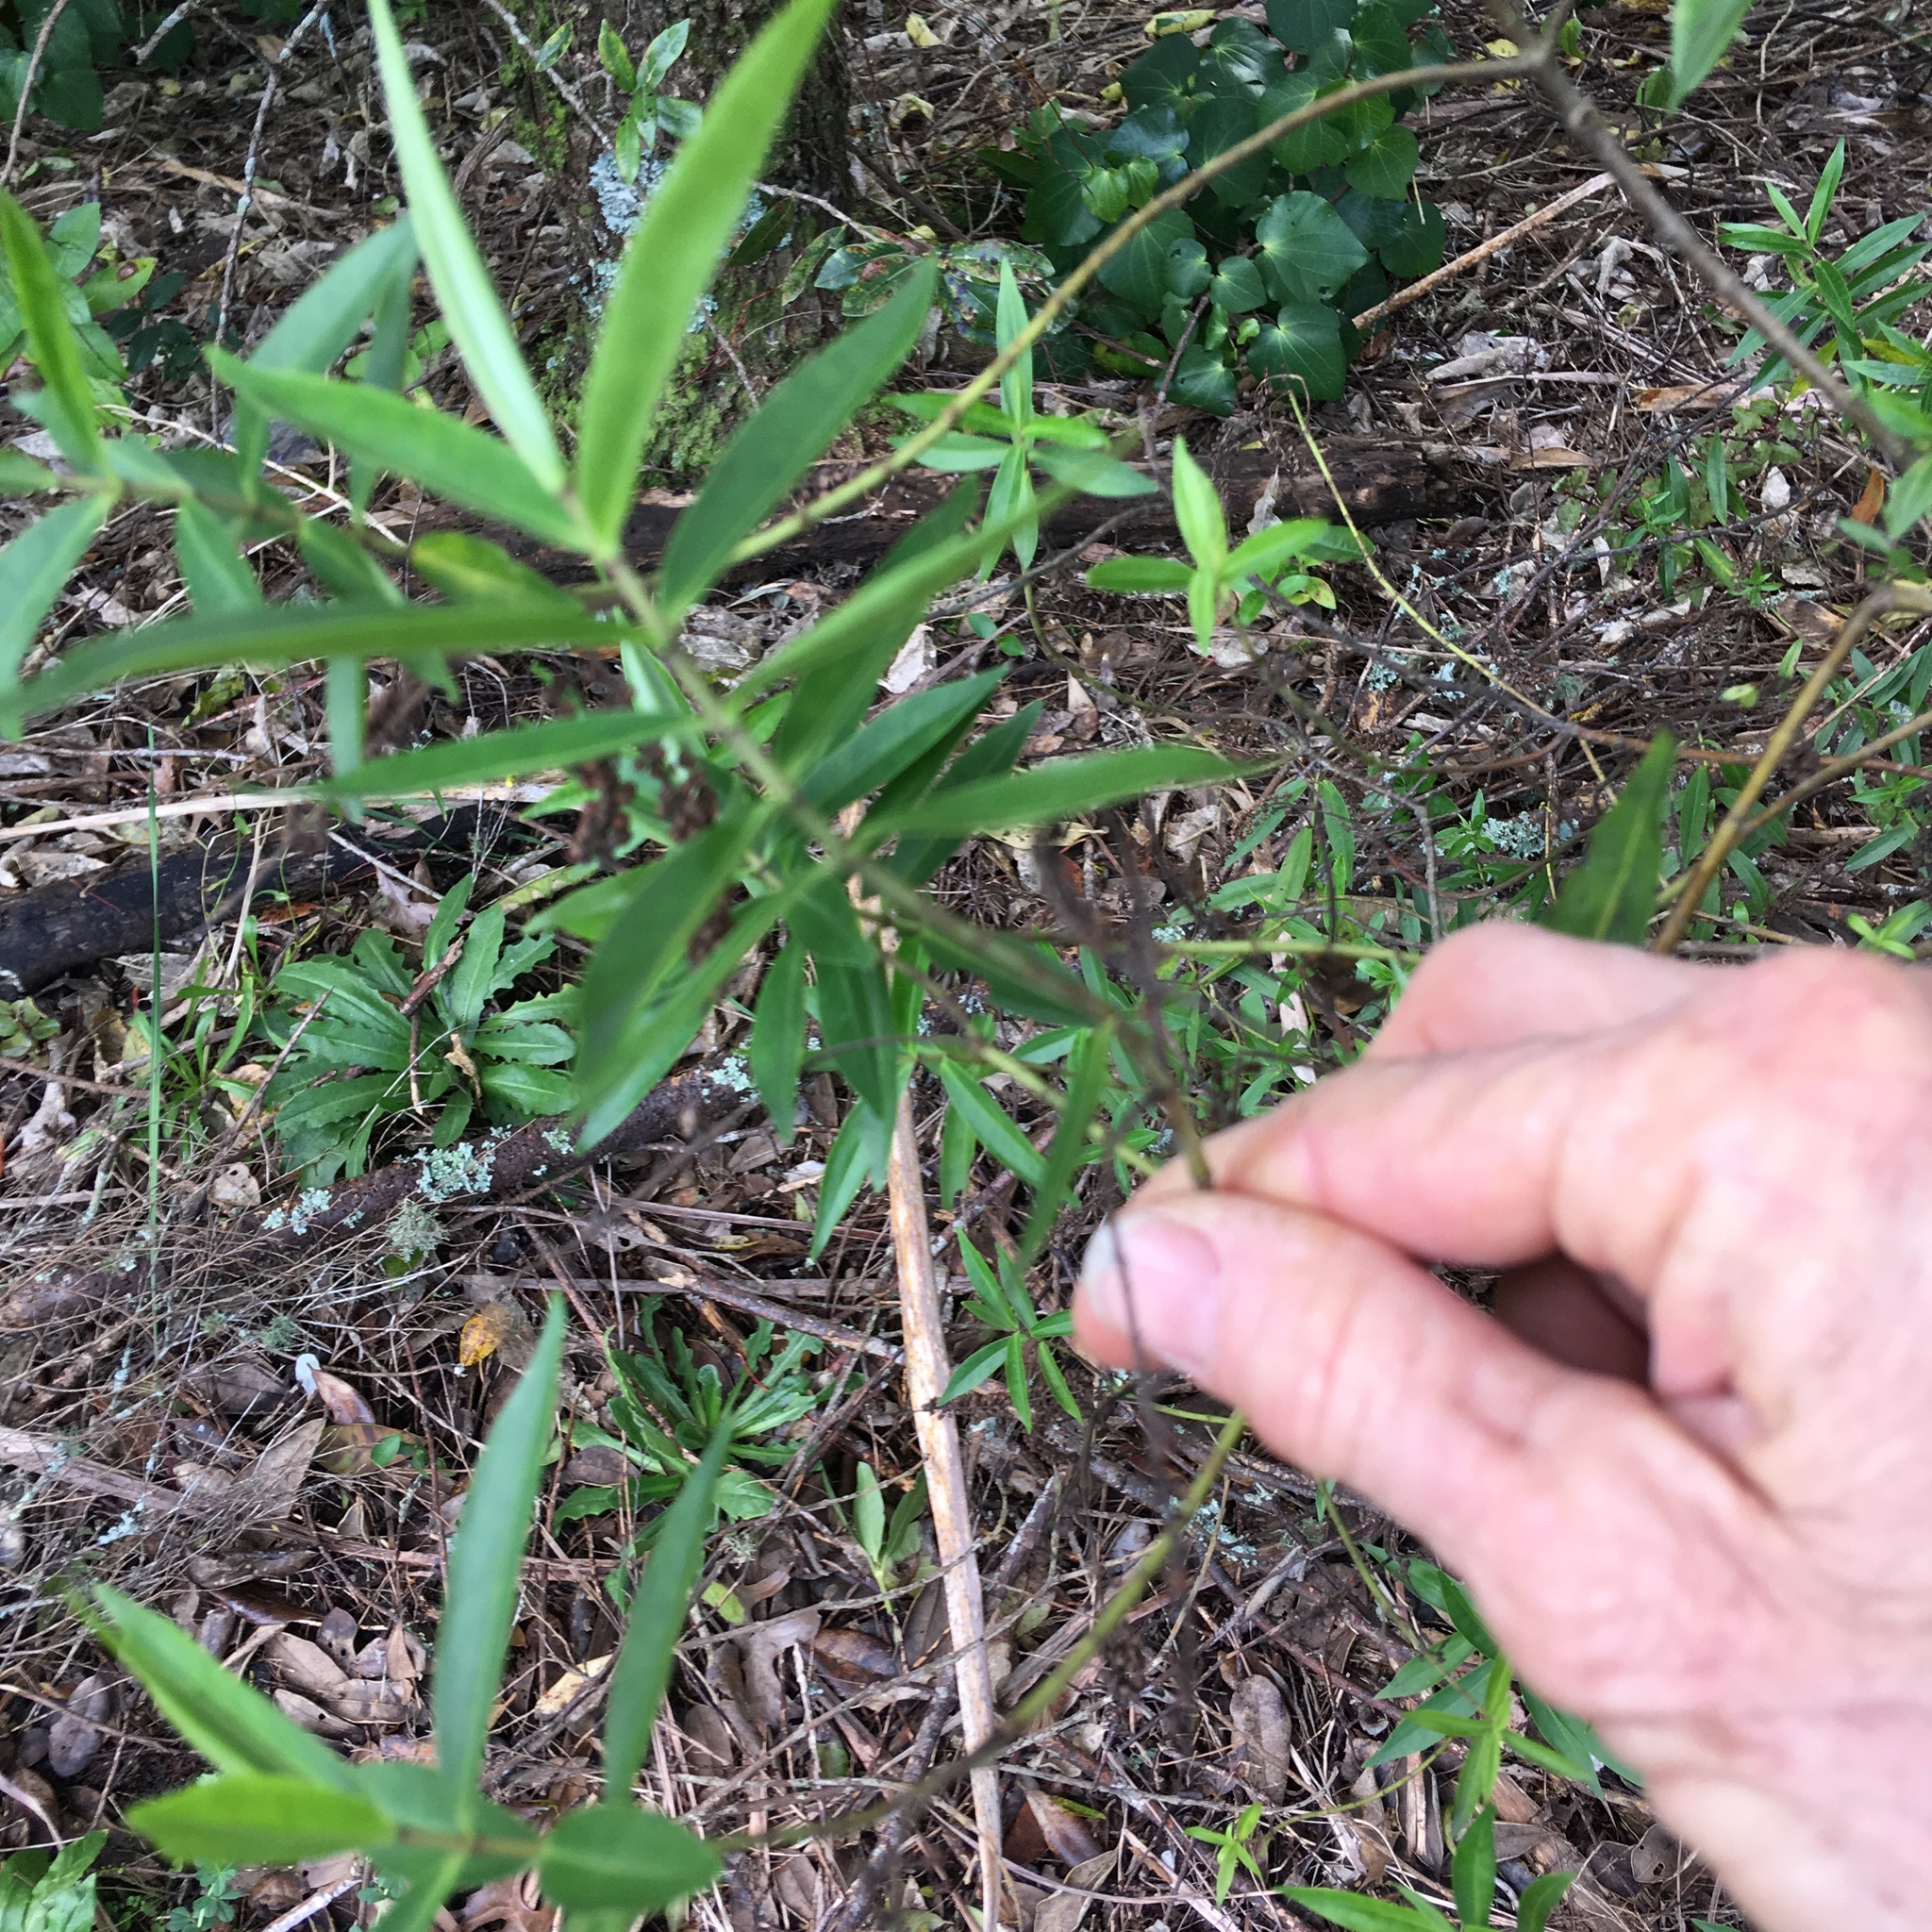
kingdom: Plantae
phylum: Tracheophyta
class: Magnoliopsida
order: Lamiales
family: Plantaginaceae
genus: Veronica
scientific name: Veronica stricta
